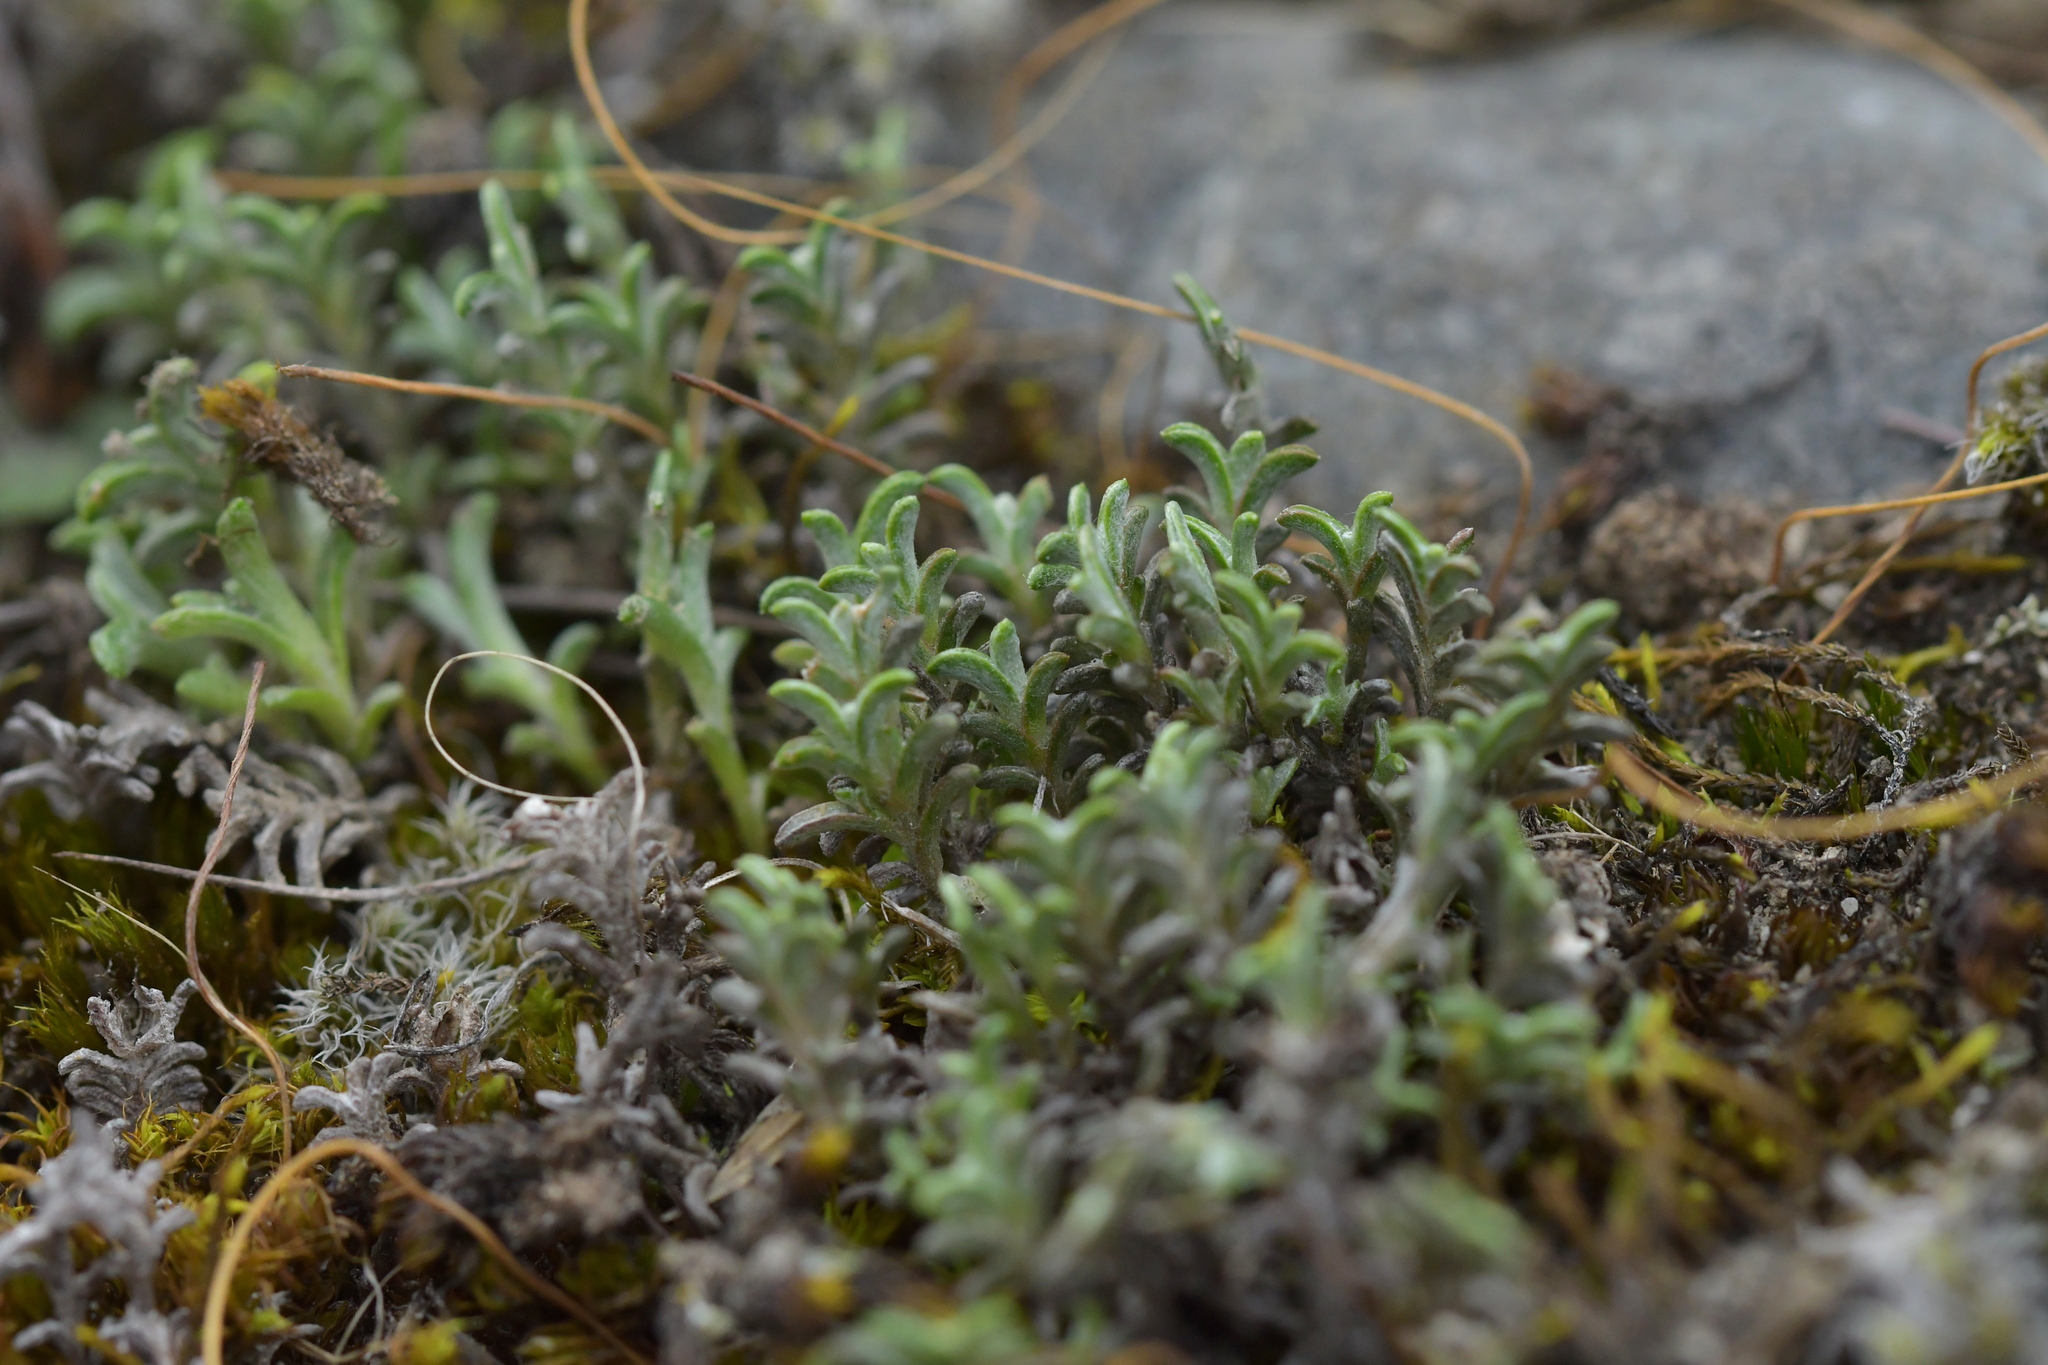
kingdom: Plantae
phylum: Tracheophyta
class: Magnoliopsida
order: Asterales
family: Asteraceae
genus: Raoulia
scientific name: Raoulia monroi
